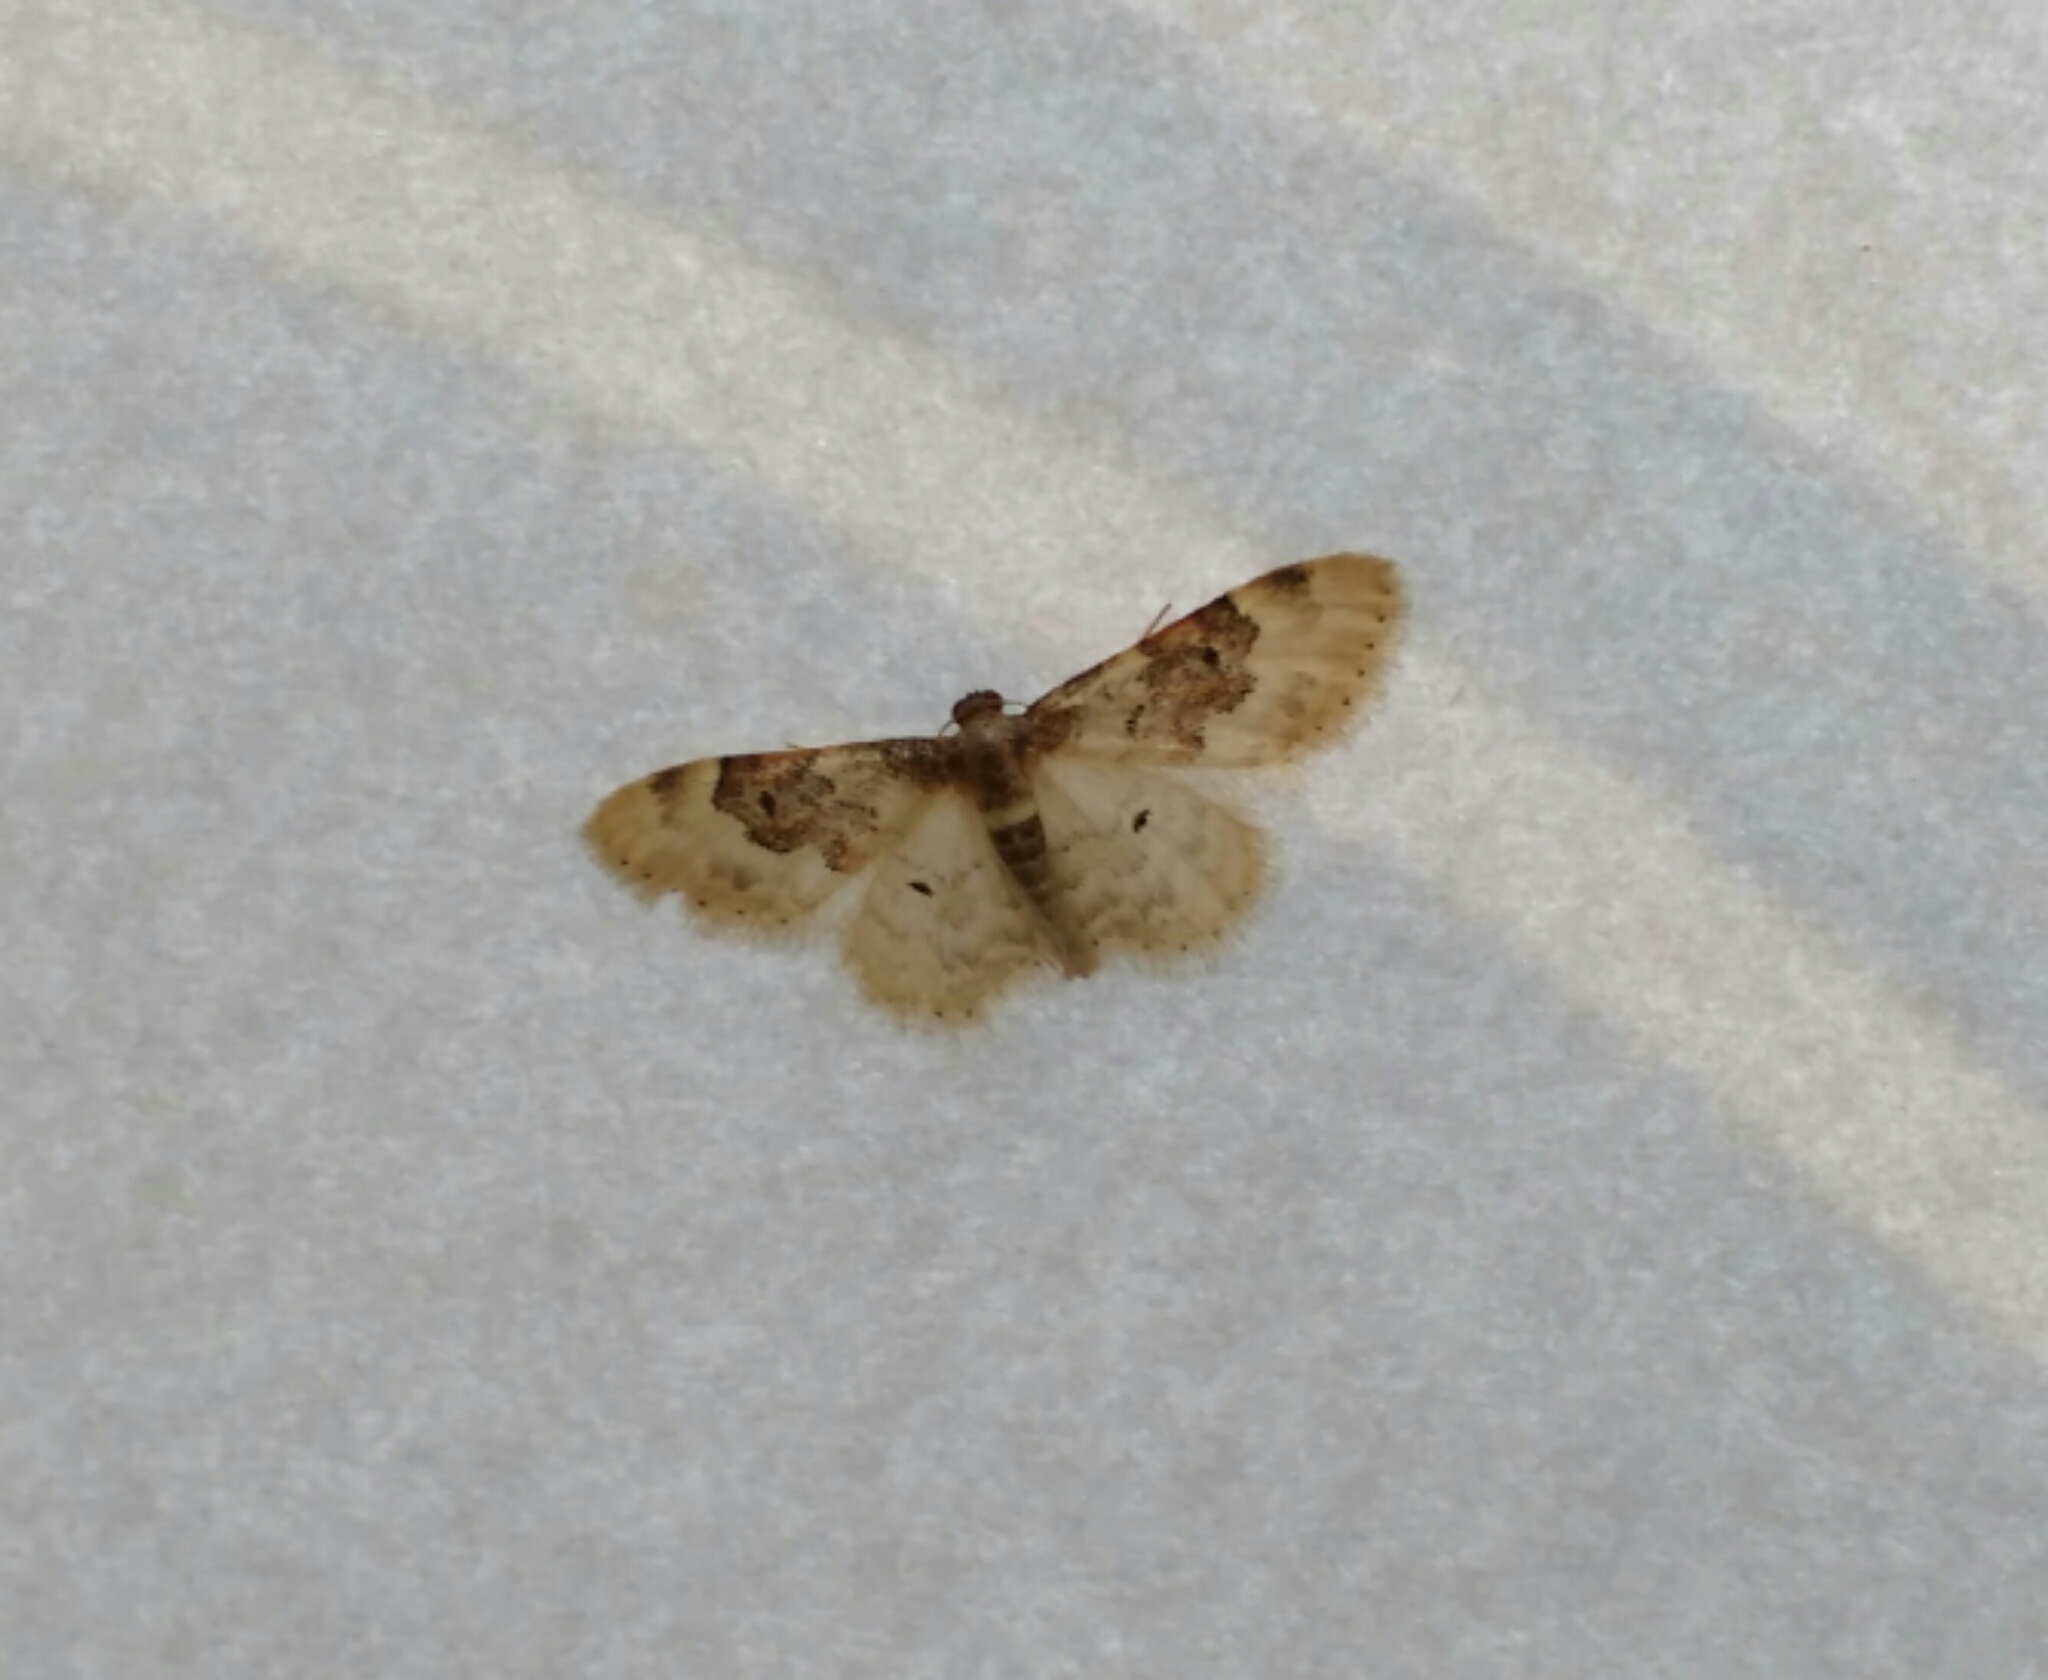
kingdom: Animalia
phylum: Arthropoda
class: Insecta
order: Lepidoptera
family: Geometridae
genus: Idaea
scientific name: Idaea rusticata
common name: Least carpet
